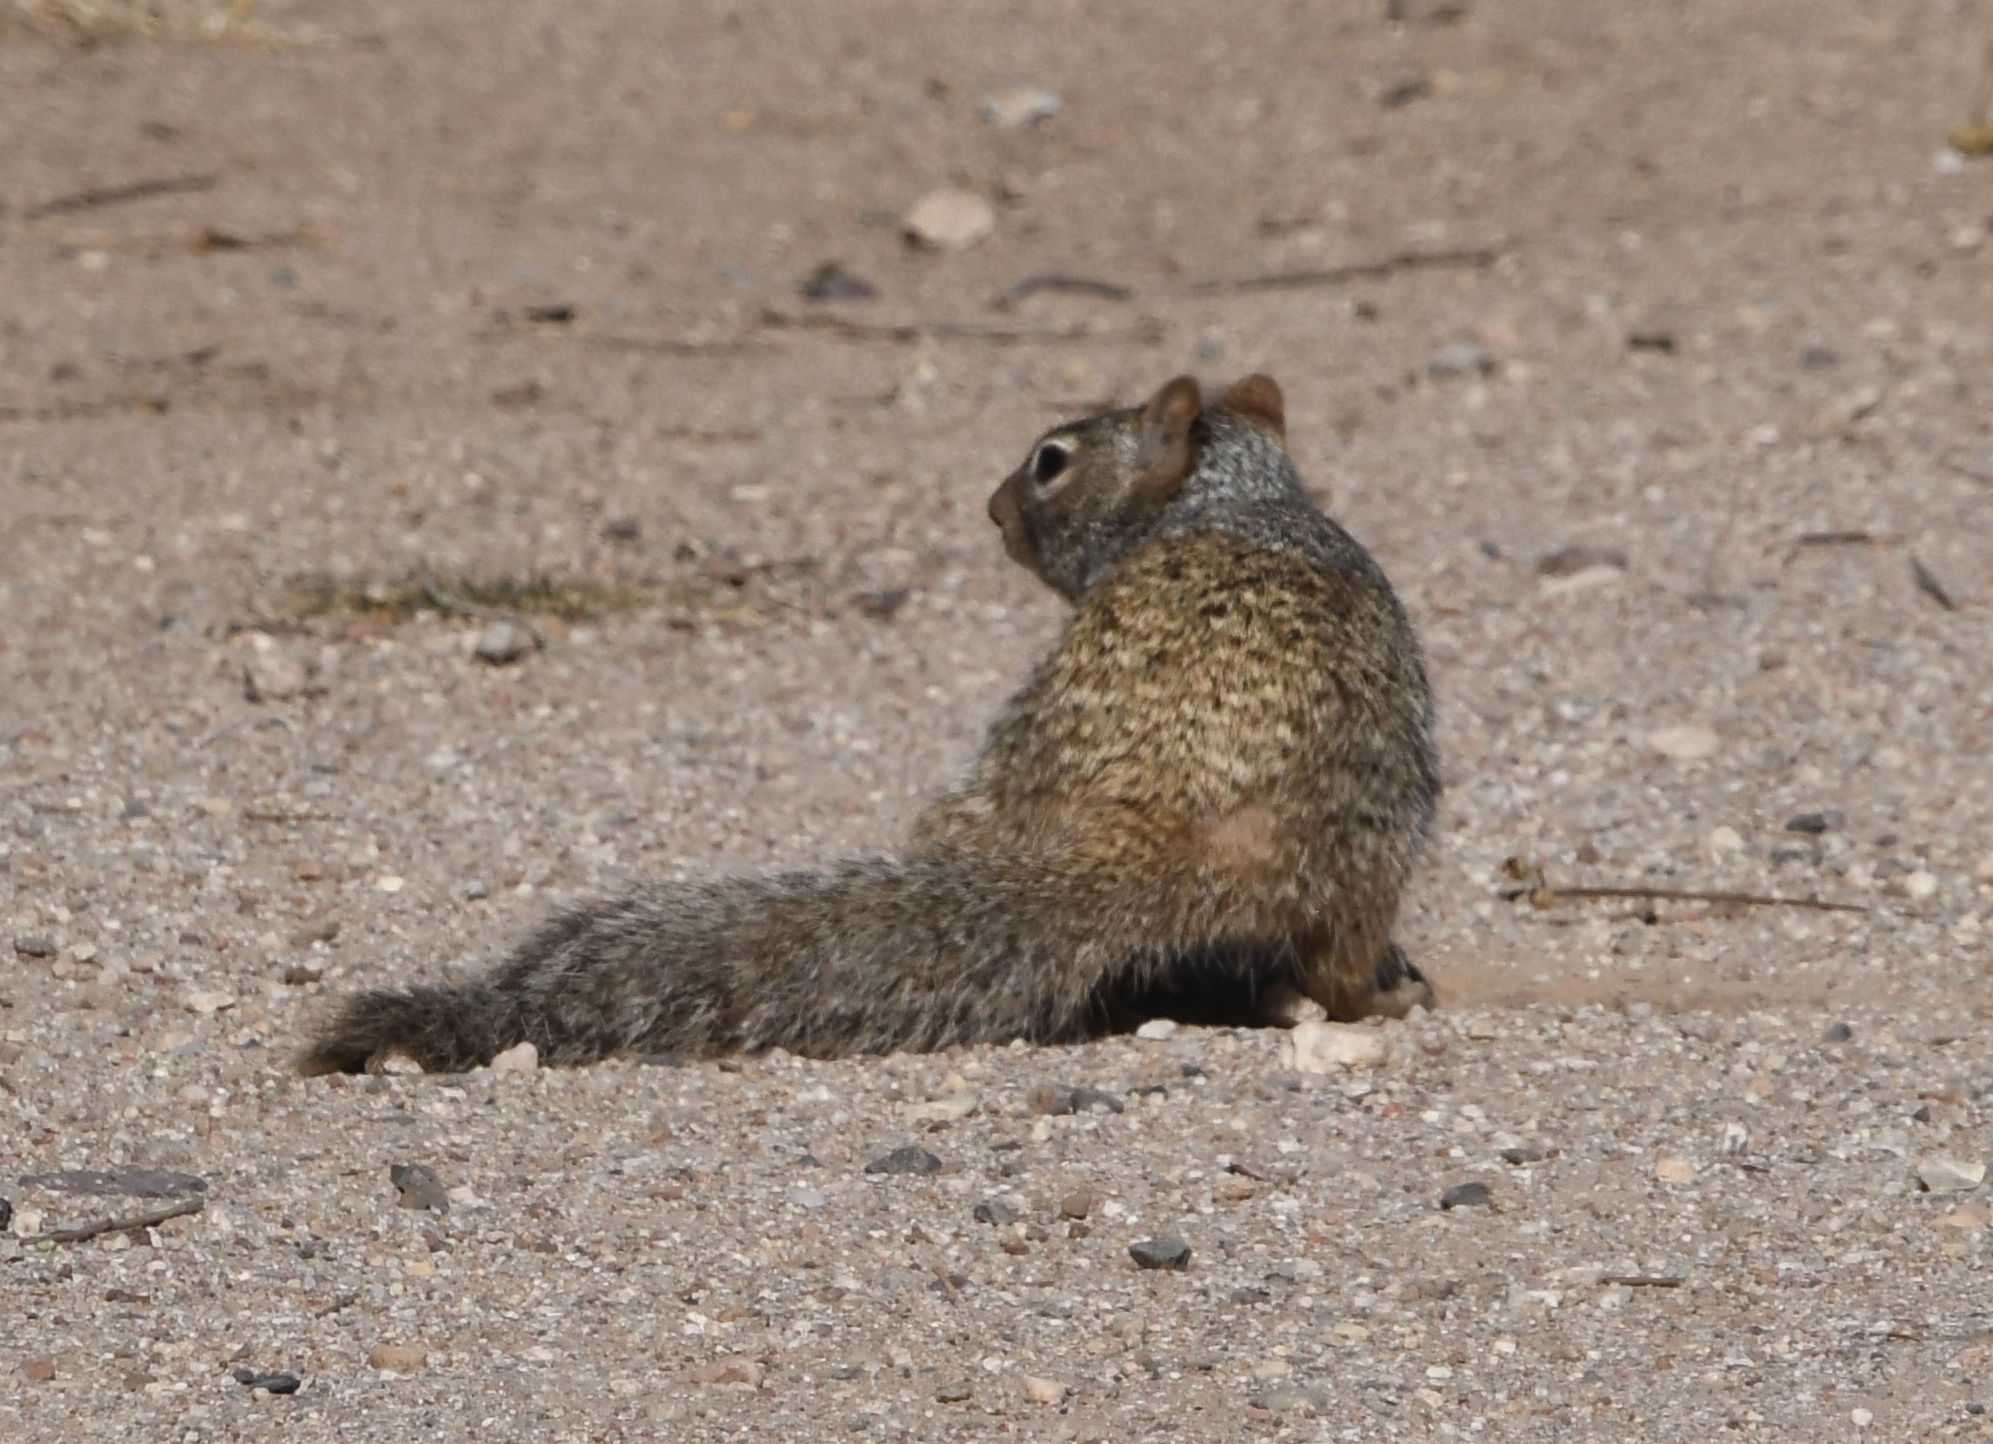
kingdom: Animalia
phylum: Chordata
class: Mammalia
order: Rodentia
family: Sciuridae
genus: Otospermophilus
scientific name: Otospermophilus variegatus
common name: Rock squirrel
